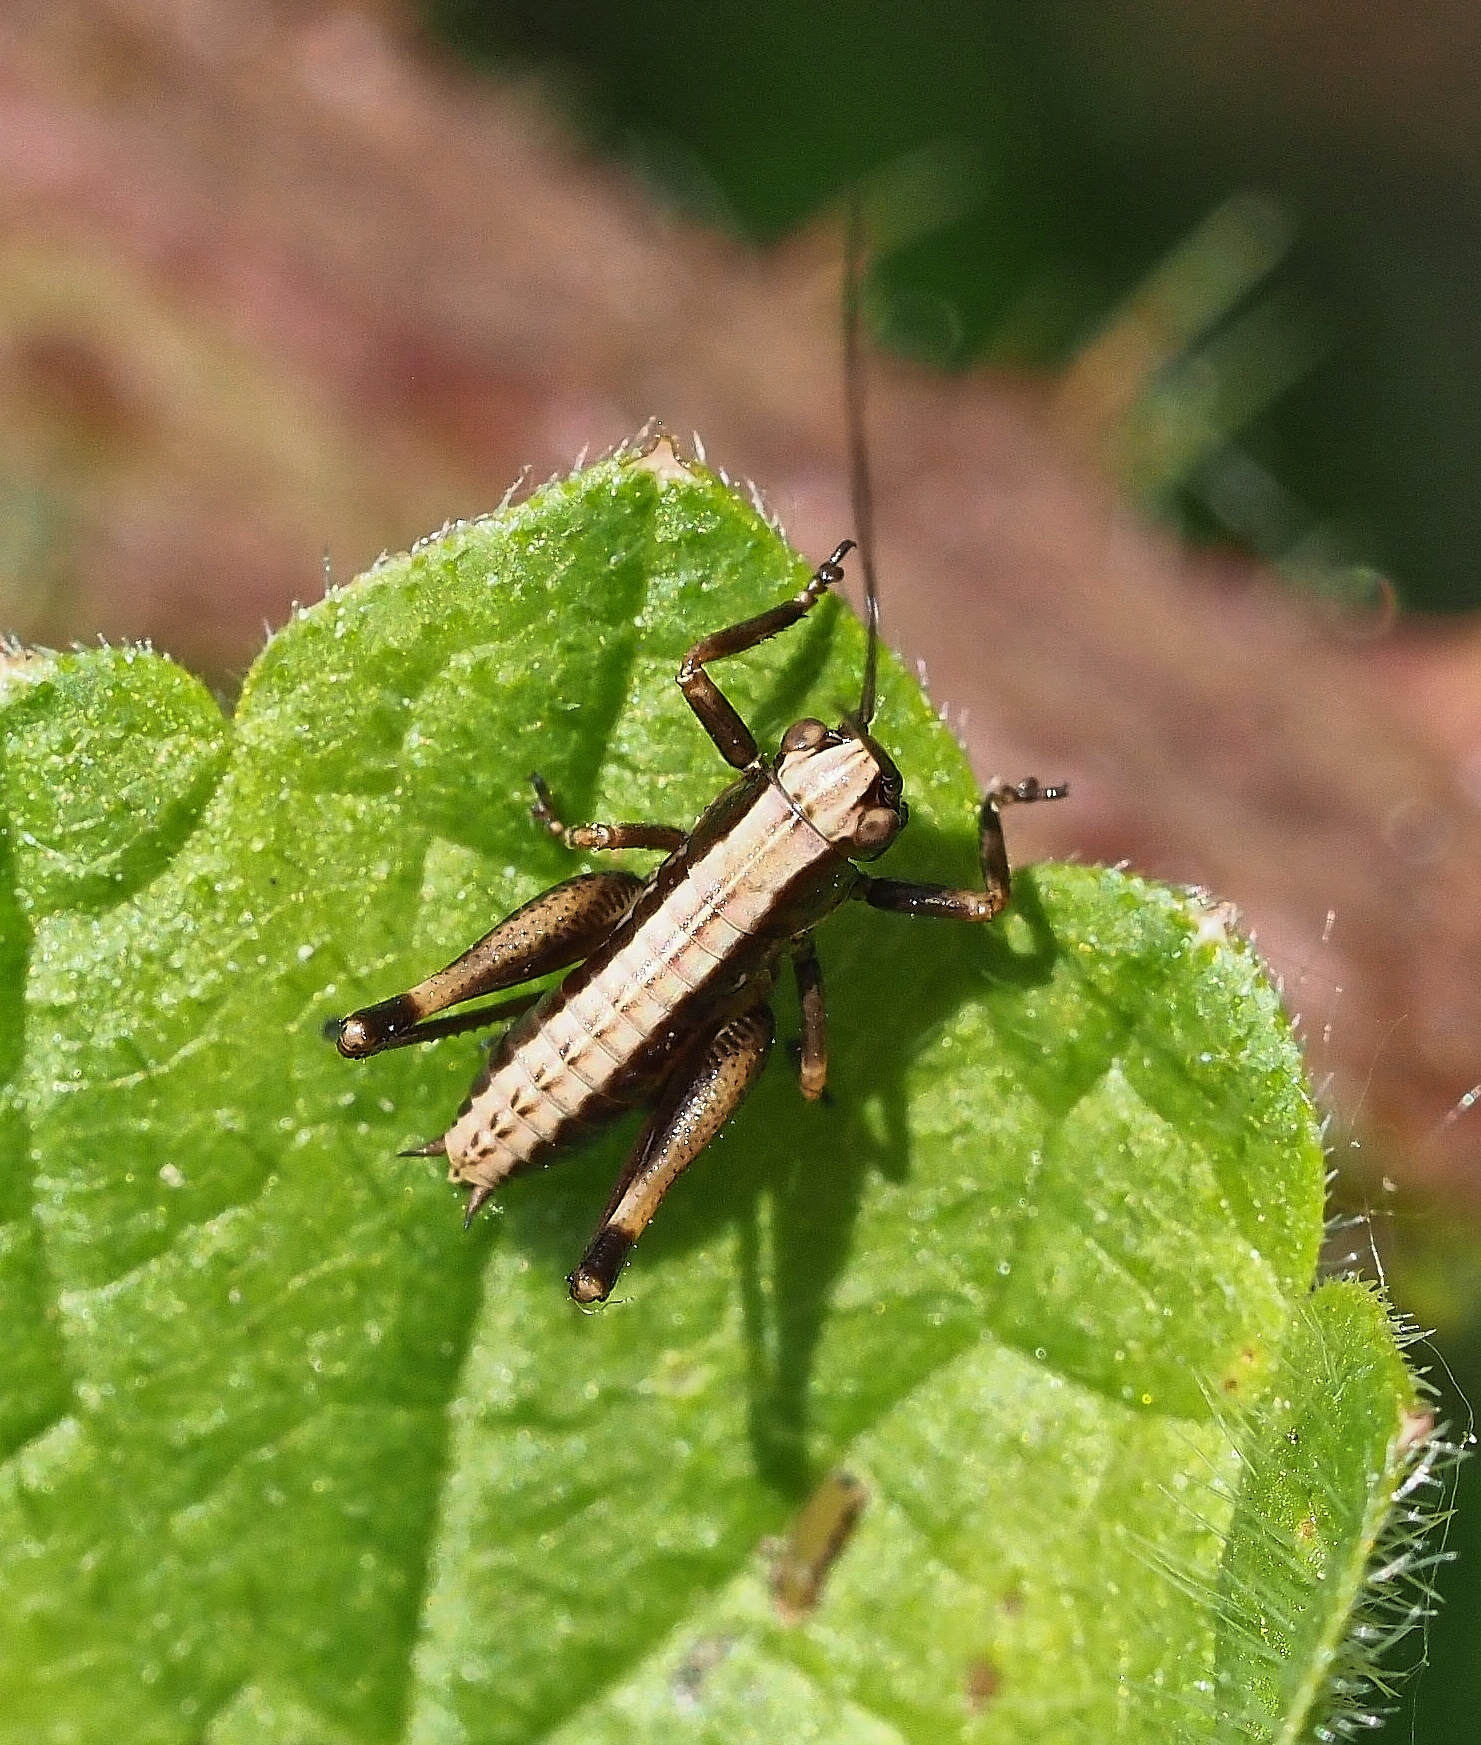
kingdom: Animalia
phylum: Arthropoda
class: Insecta
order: Orthoptera
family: Tettigoniidae
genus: Pholidoptera
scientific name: Pholidoptera griseoaptera
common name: Dark bush-cricket
